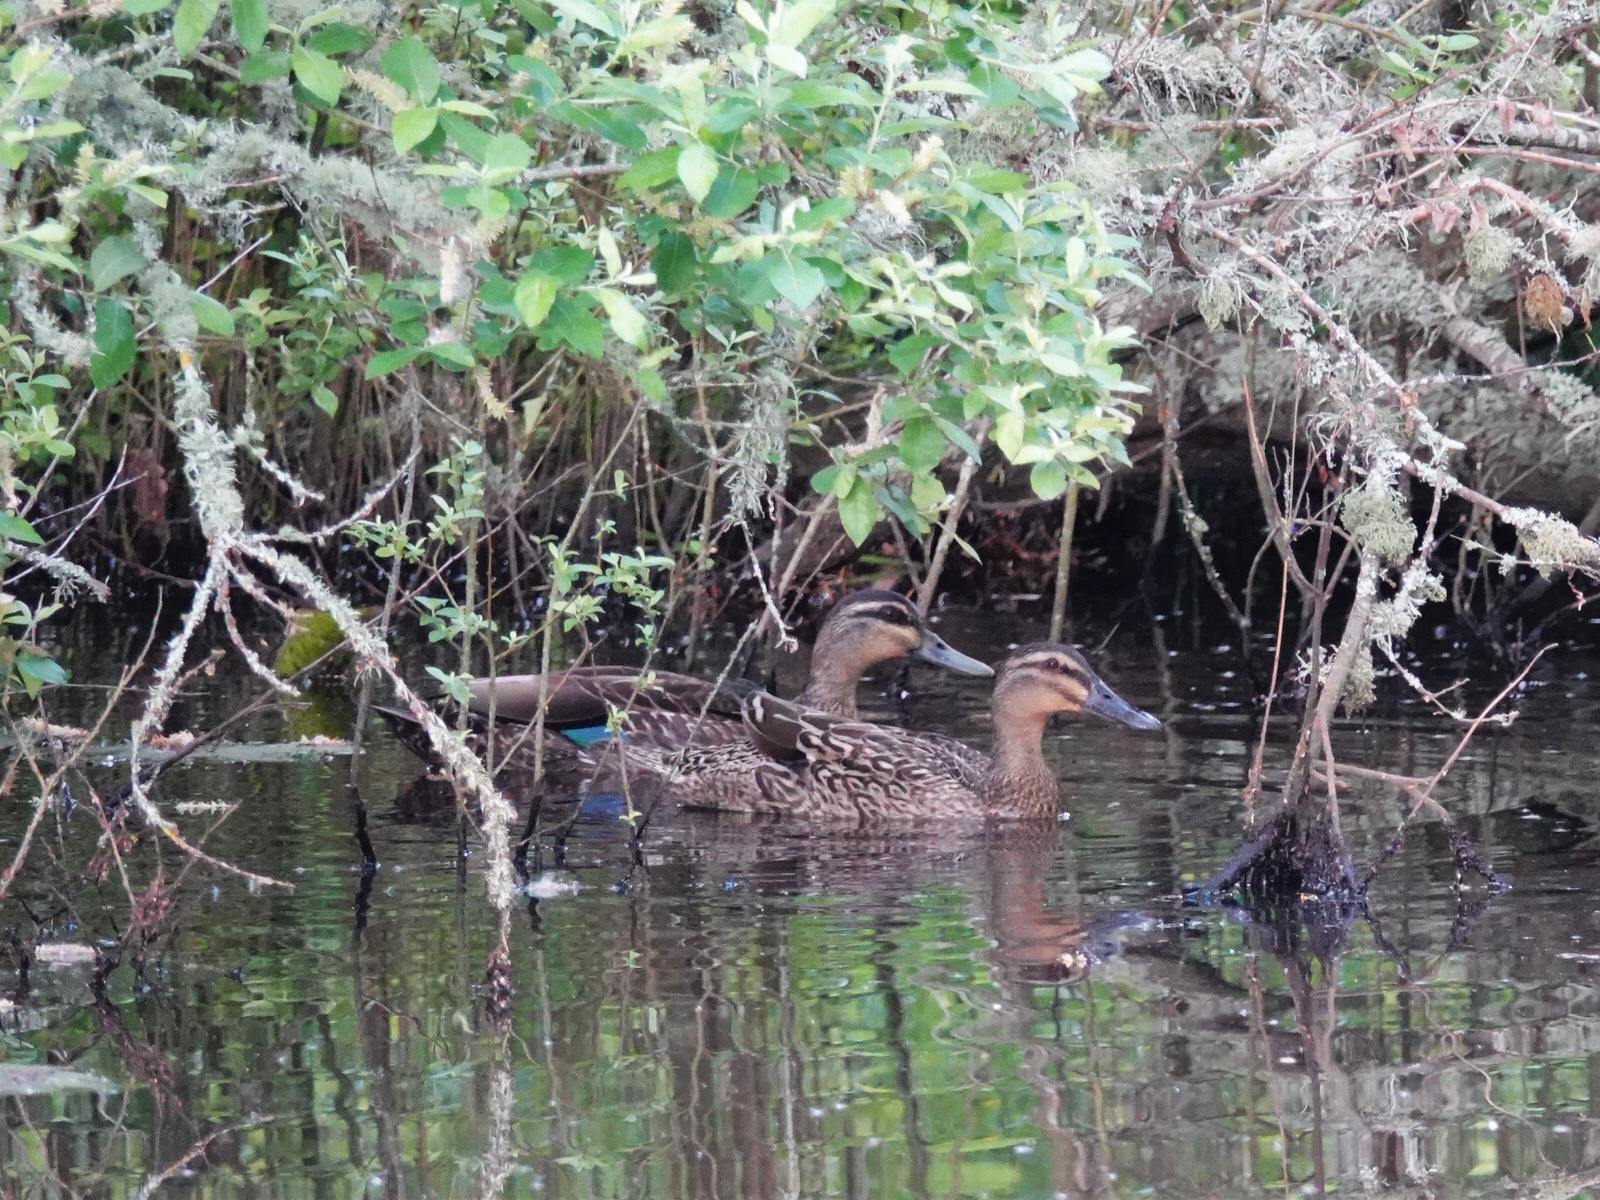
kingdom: Animalia
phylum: Chordata
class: Aves
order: Anseriformes
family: Anatidae
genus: Anas
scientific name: Anas
